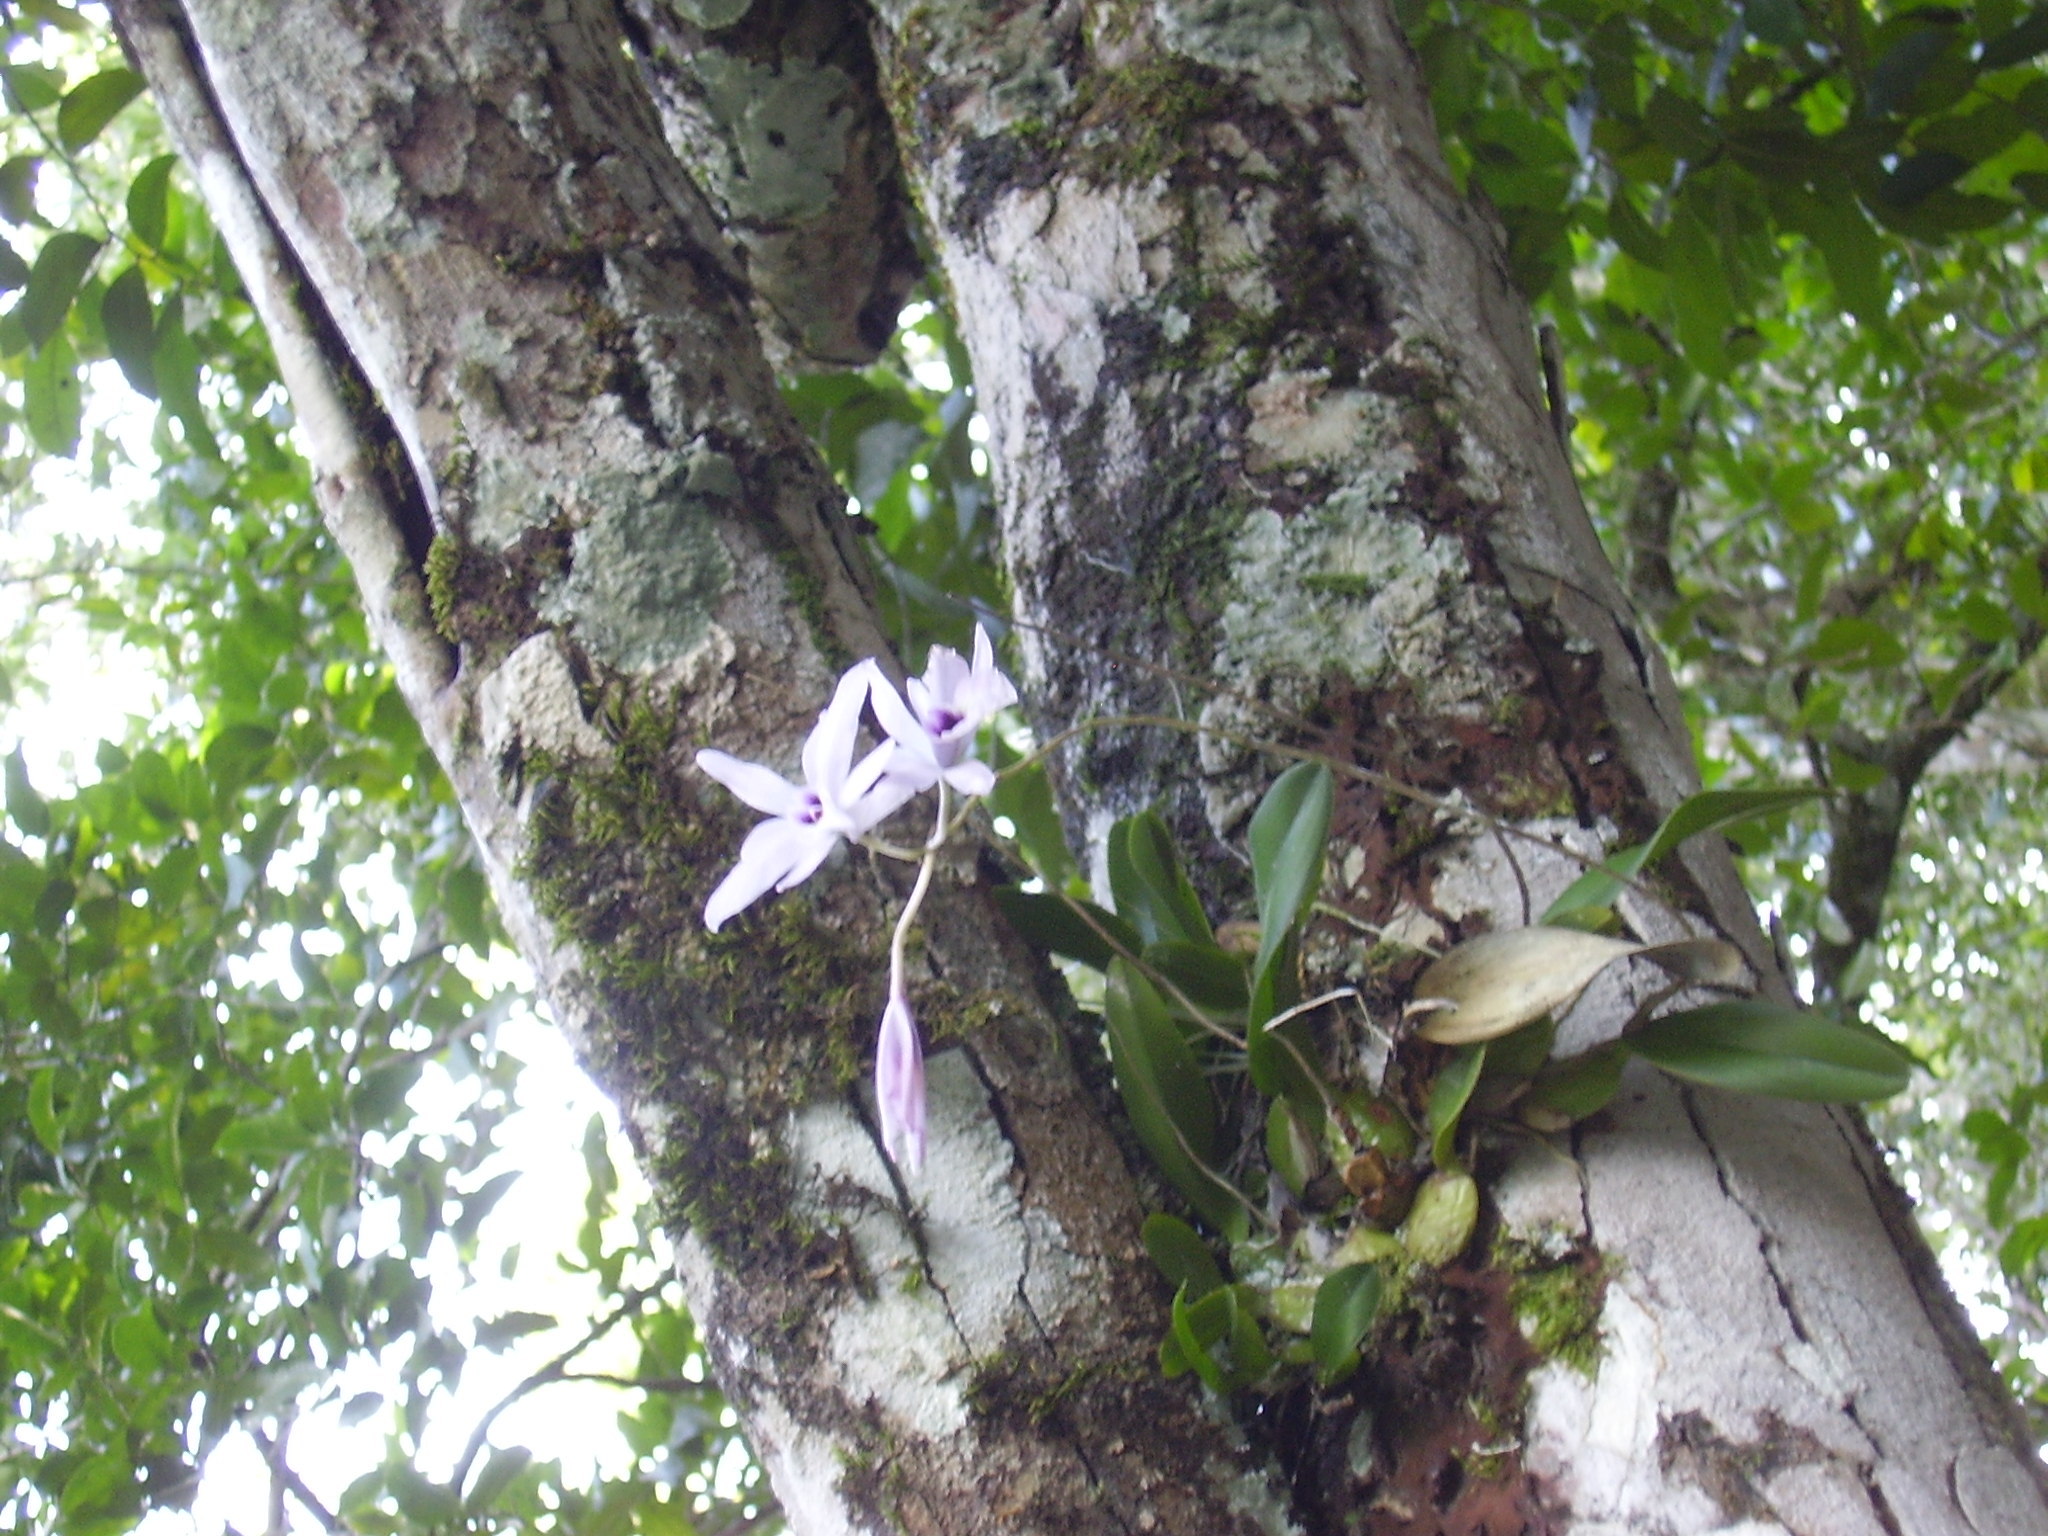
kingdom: Plantae
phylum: Tracheophyta
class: Liliopsida
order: Asparagales
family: Orchidaceae
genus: Laelia
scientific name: Laelia rubescens
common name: Pale laelia
